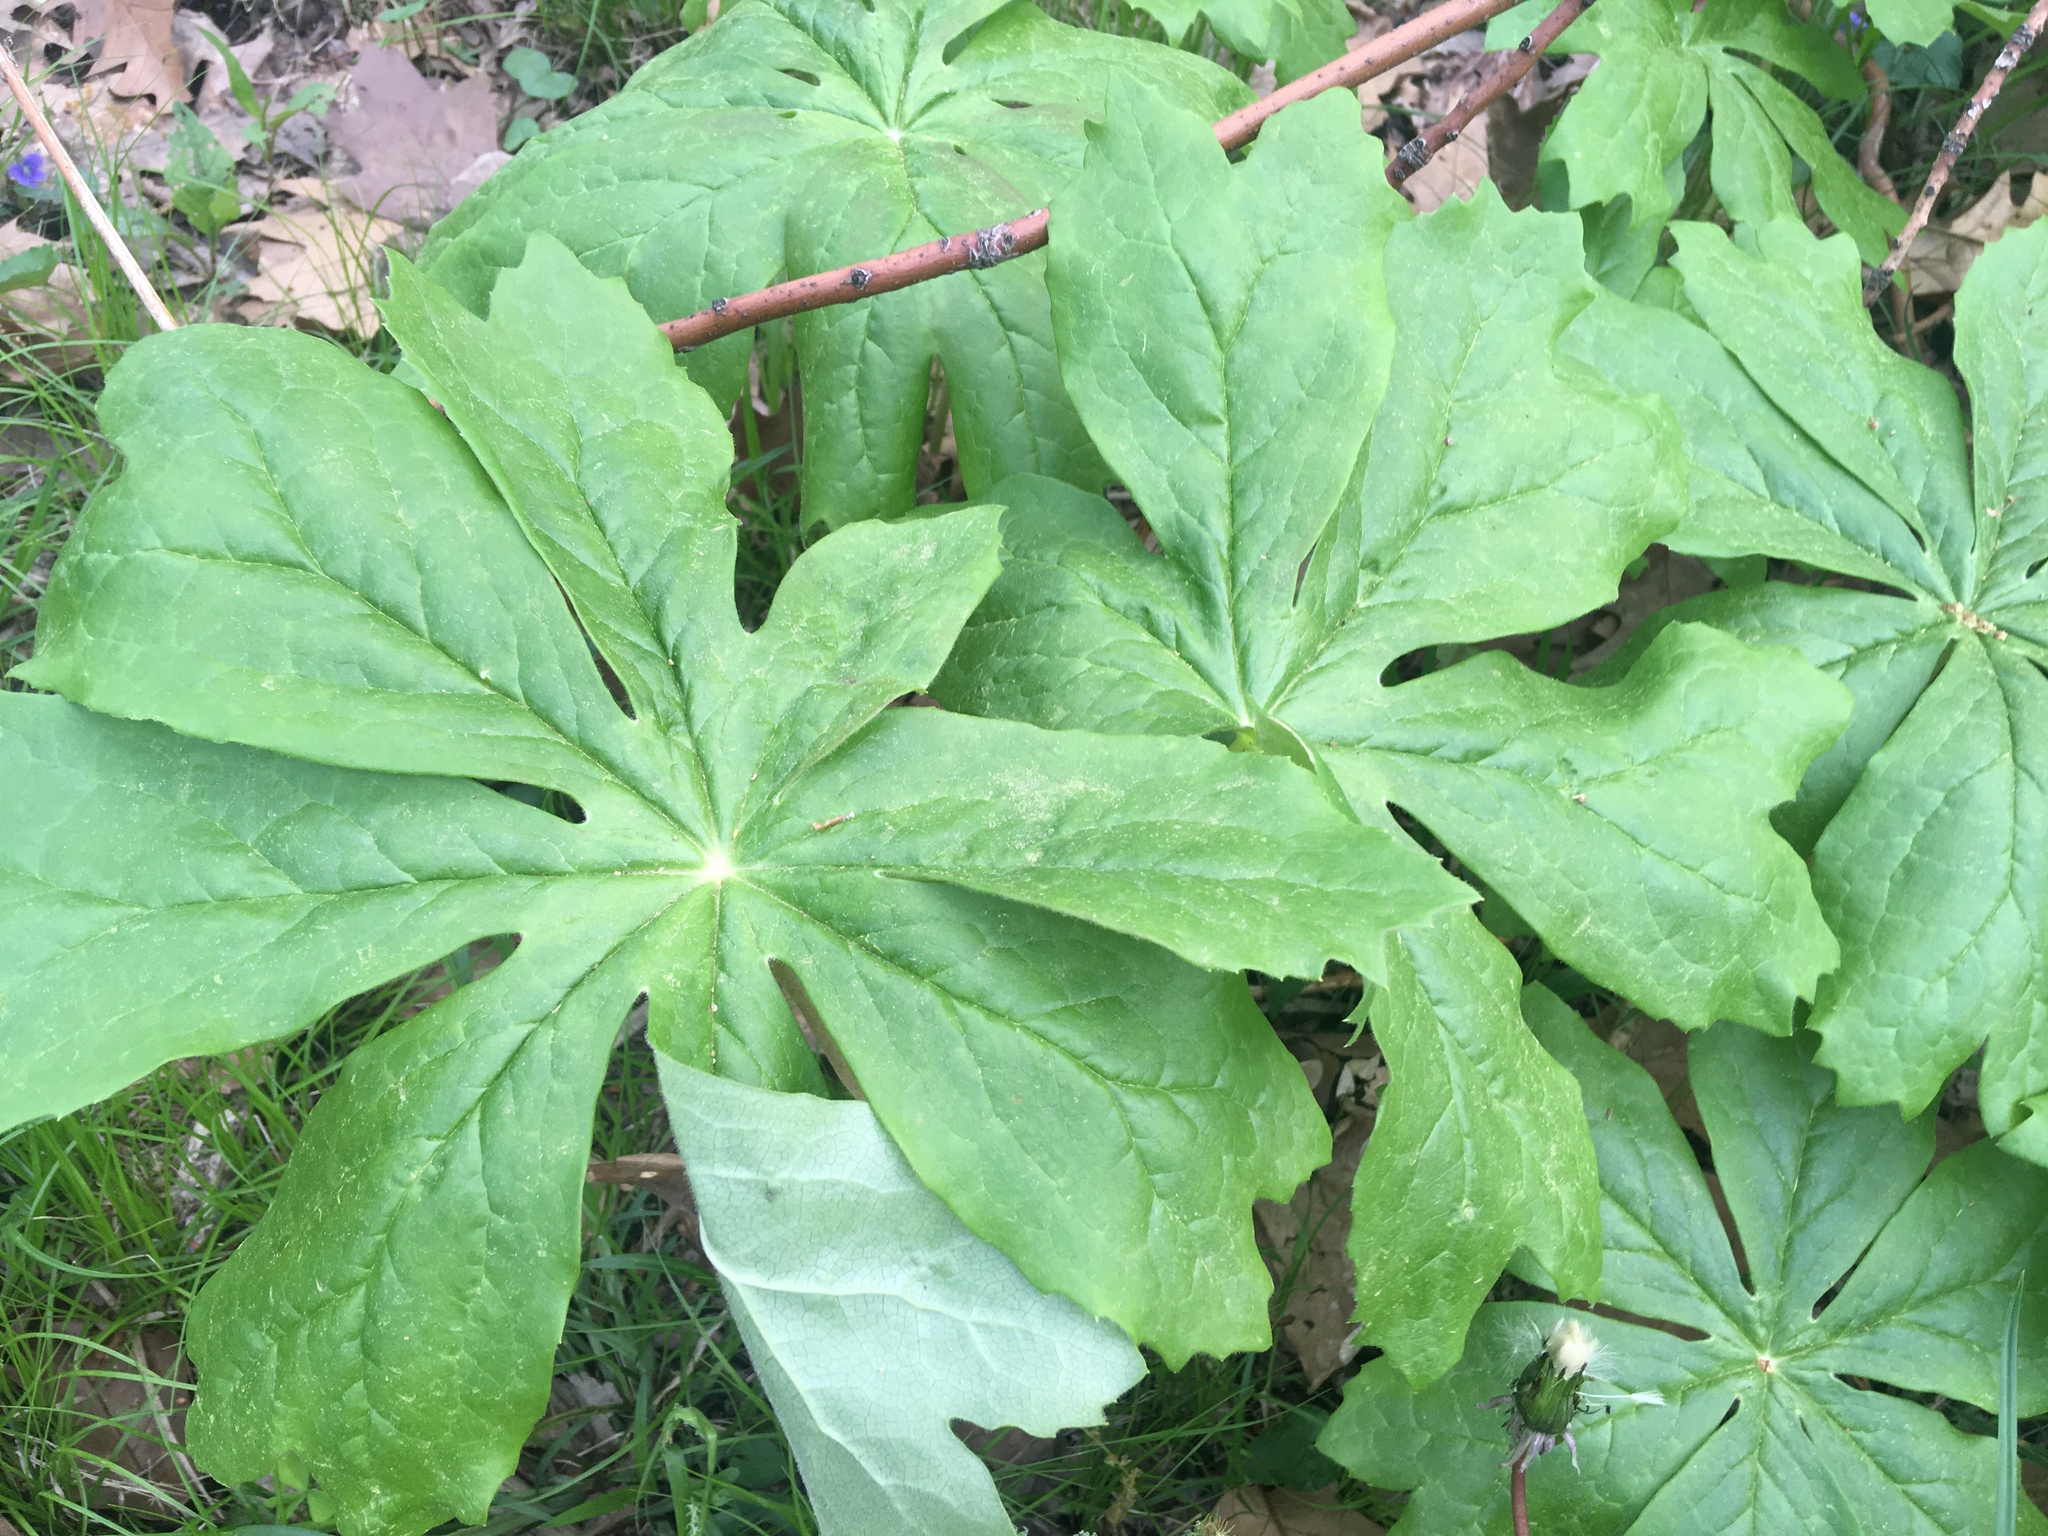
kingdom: Plantae
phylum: Tracheophyta
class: Magnoliopsida
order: Ranunculales
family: Berberidaceae
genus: Podophyllum
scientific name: Podophyllum peltatum
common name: Wild mandrake
